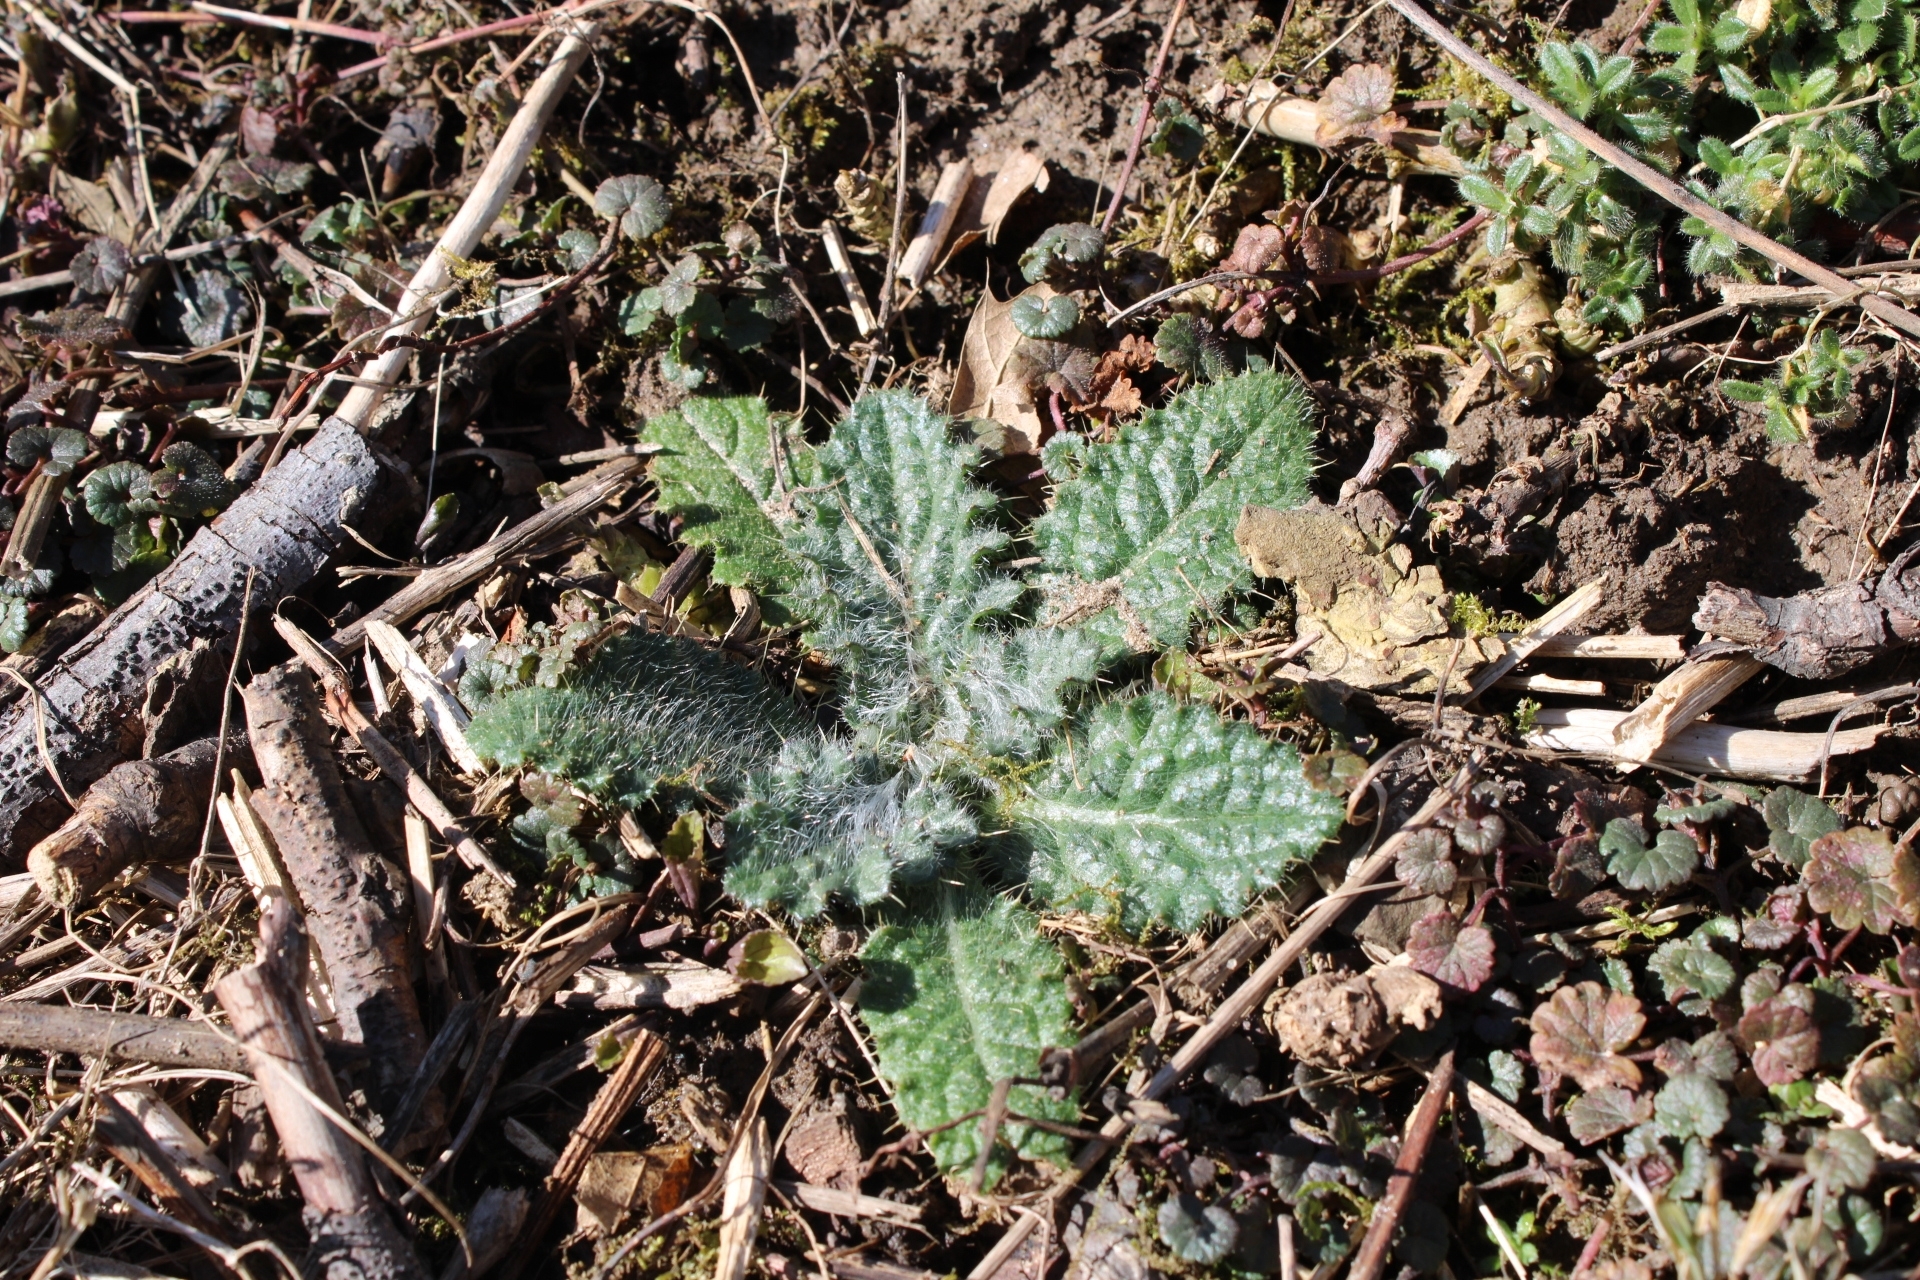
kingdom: Plantae
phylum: Tracheophyta
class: Magnoliopsida
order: Asterales
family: Asteraceae
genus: Cirsium
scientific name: Cirsium vulgare
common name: Bull thistle
